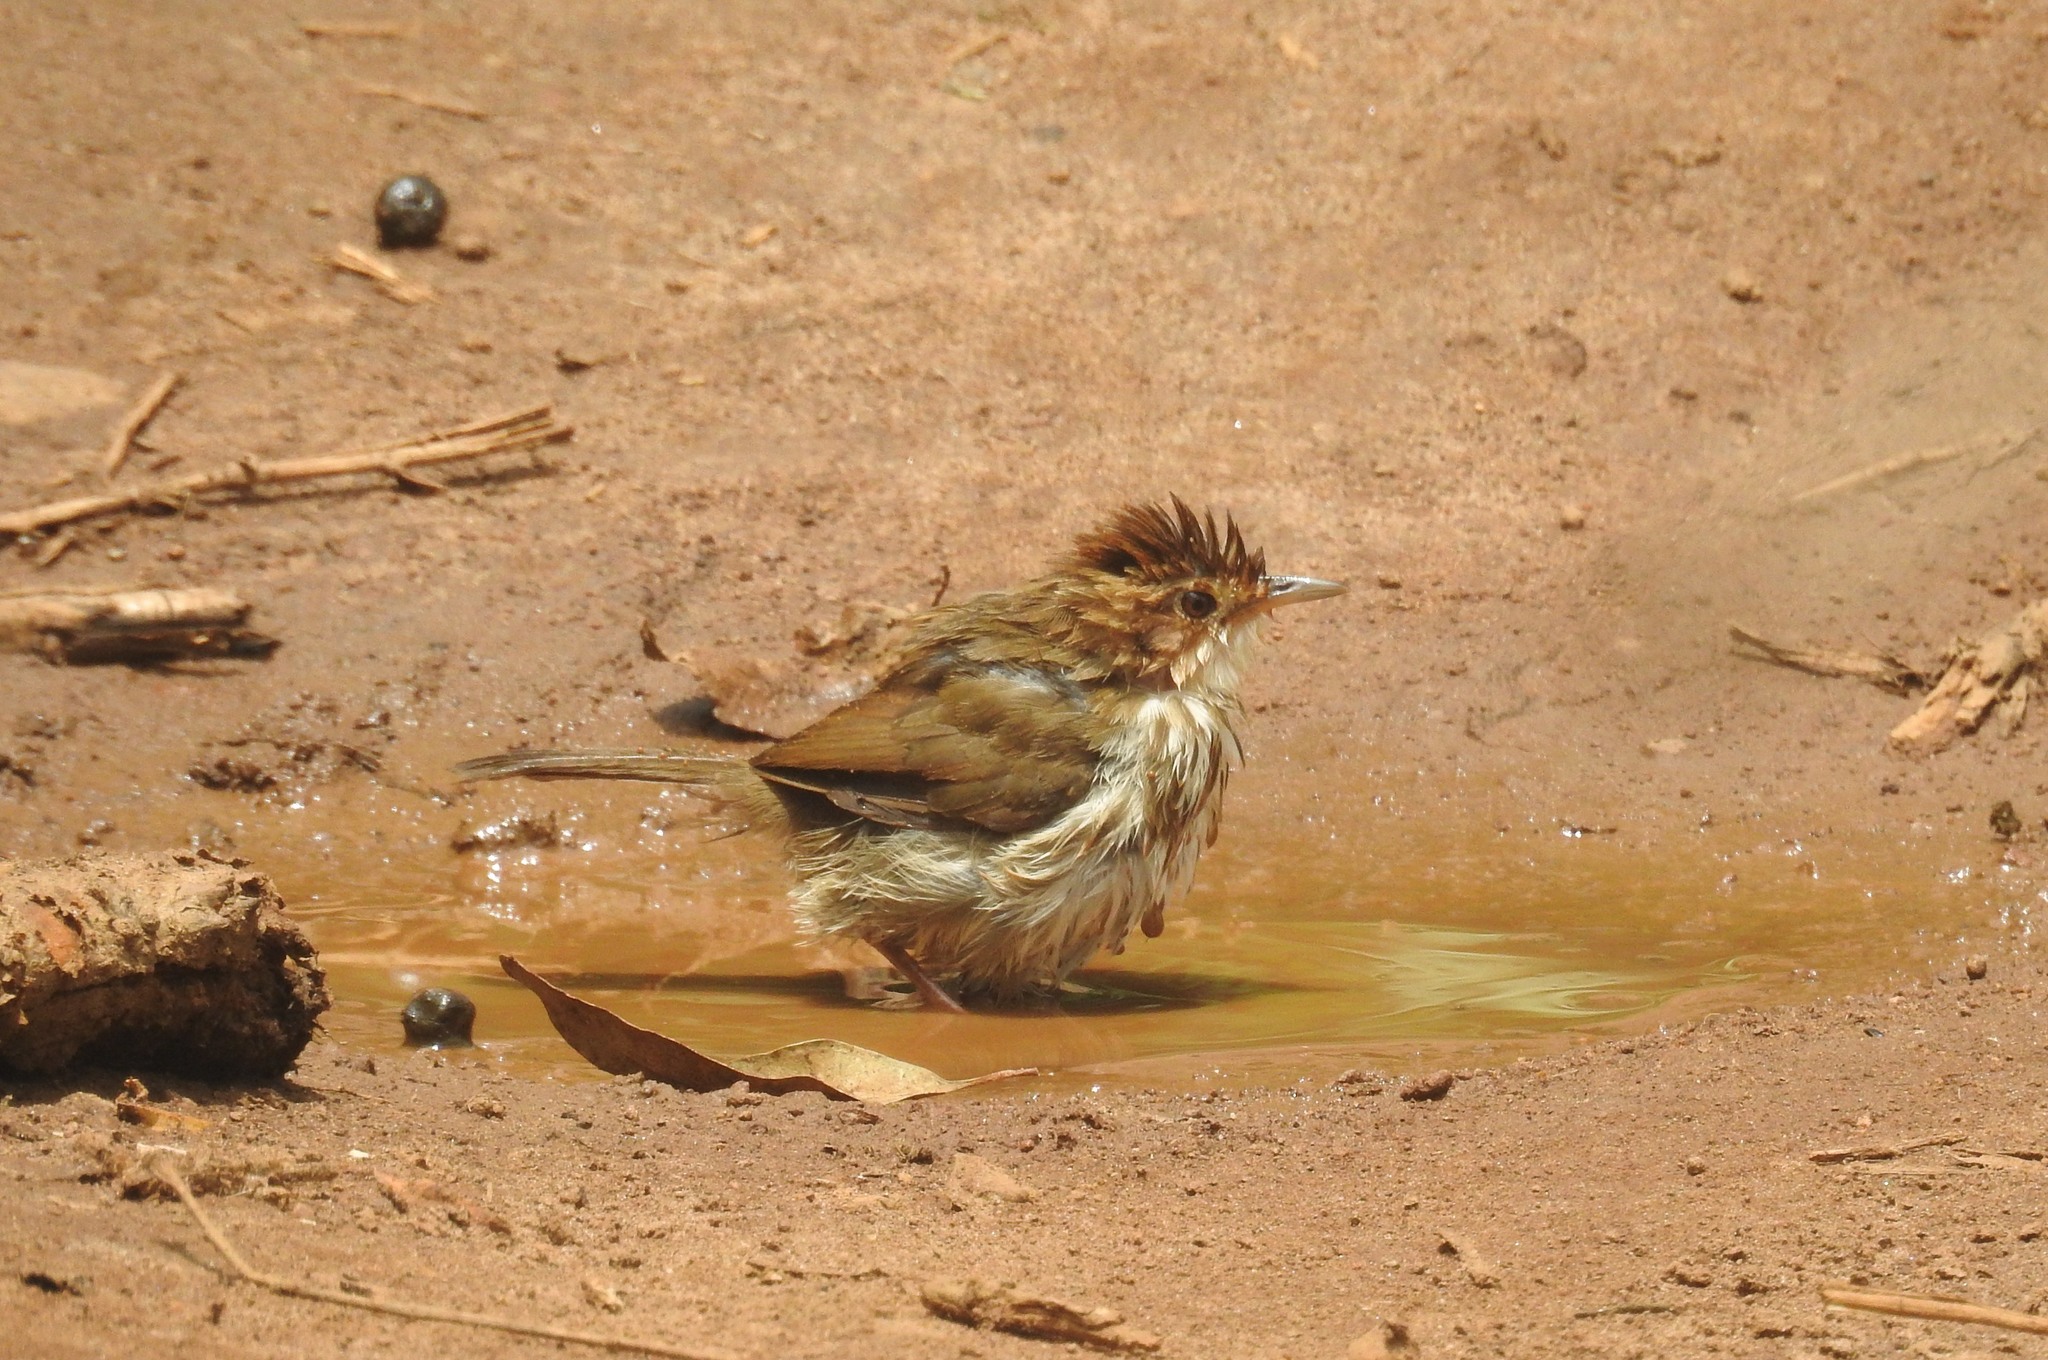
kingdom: Animalia
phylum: Chordata
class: Aves
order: Passeriformes
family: Pellorneidae
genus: Pellorneum
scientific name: Pellorneum ruficeps
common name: Puff-throated babbler
